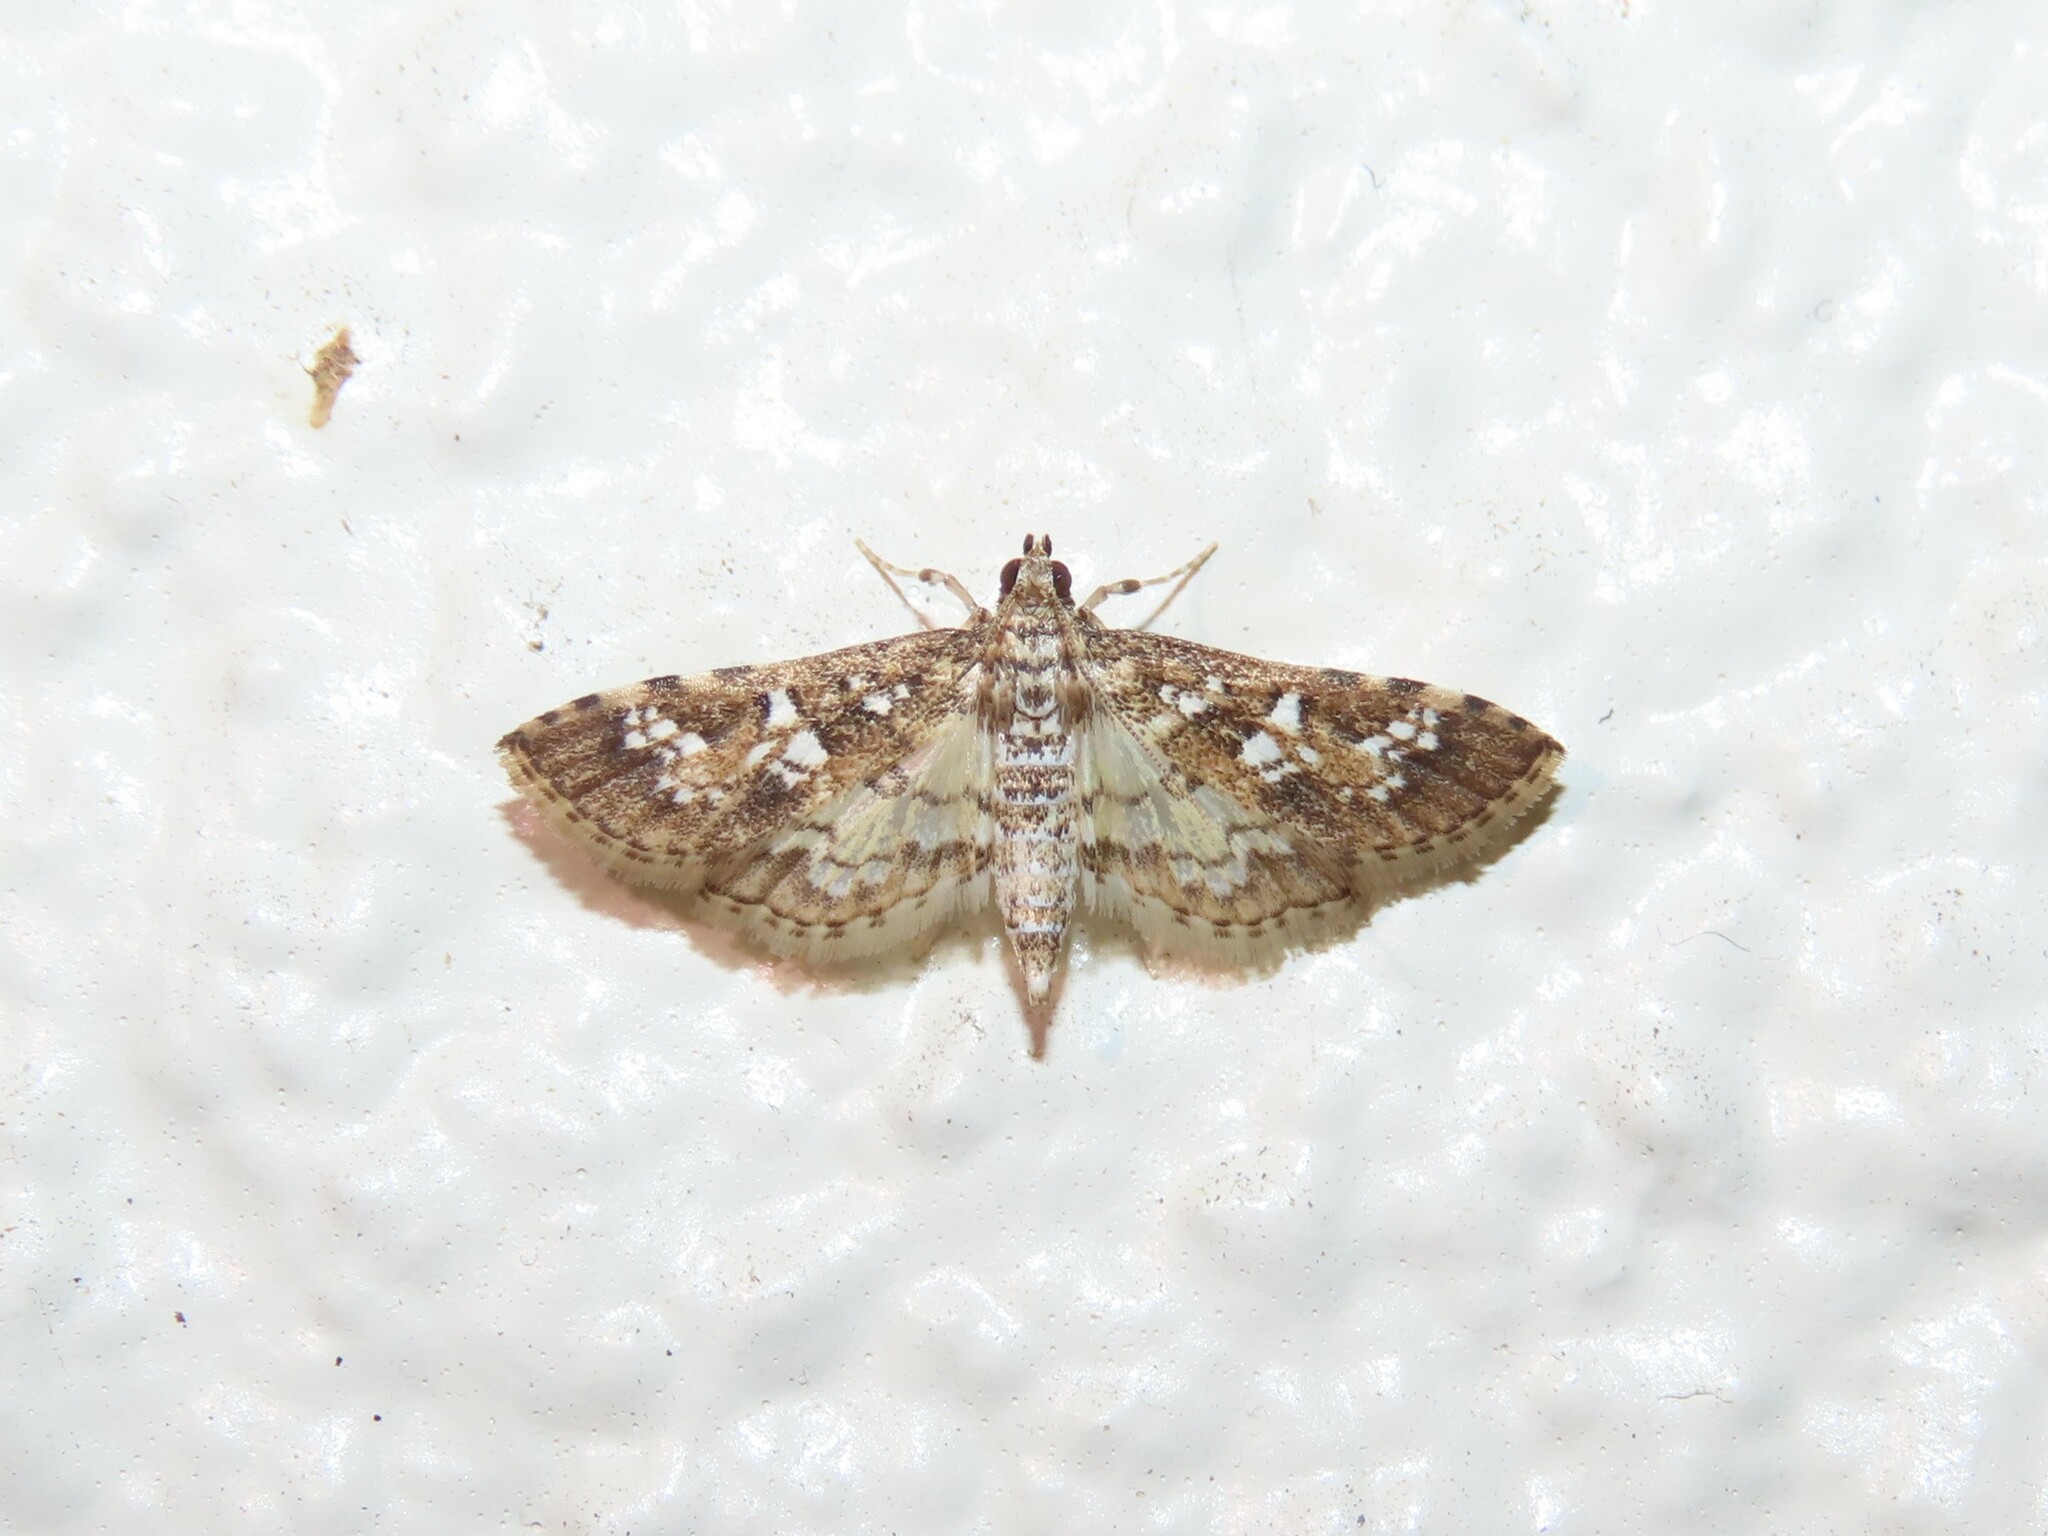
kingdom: Animalia
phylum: Arthropoda
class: Insecta
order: Lepidoptera
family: Crambidae
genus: Samea
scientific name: Samea multiplicalis
